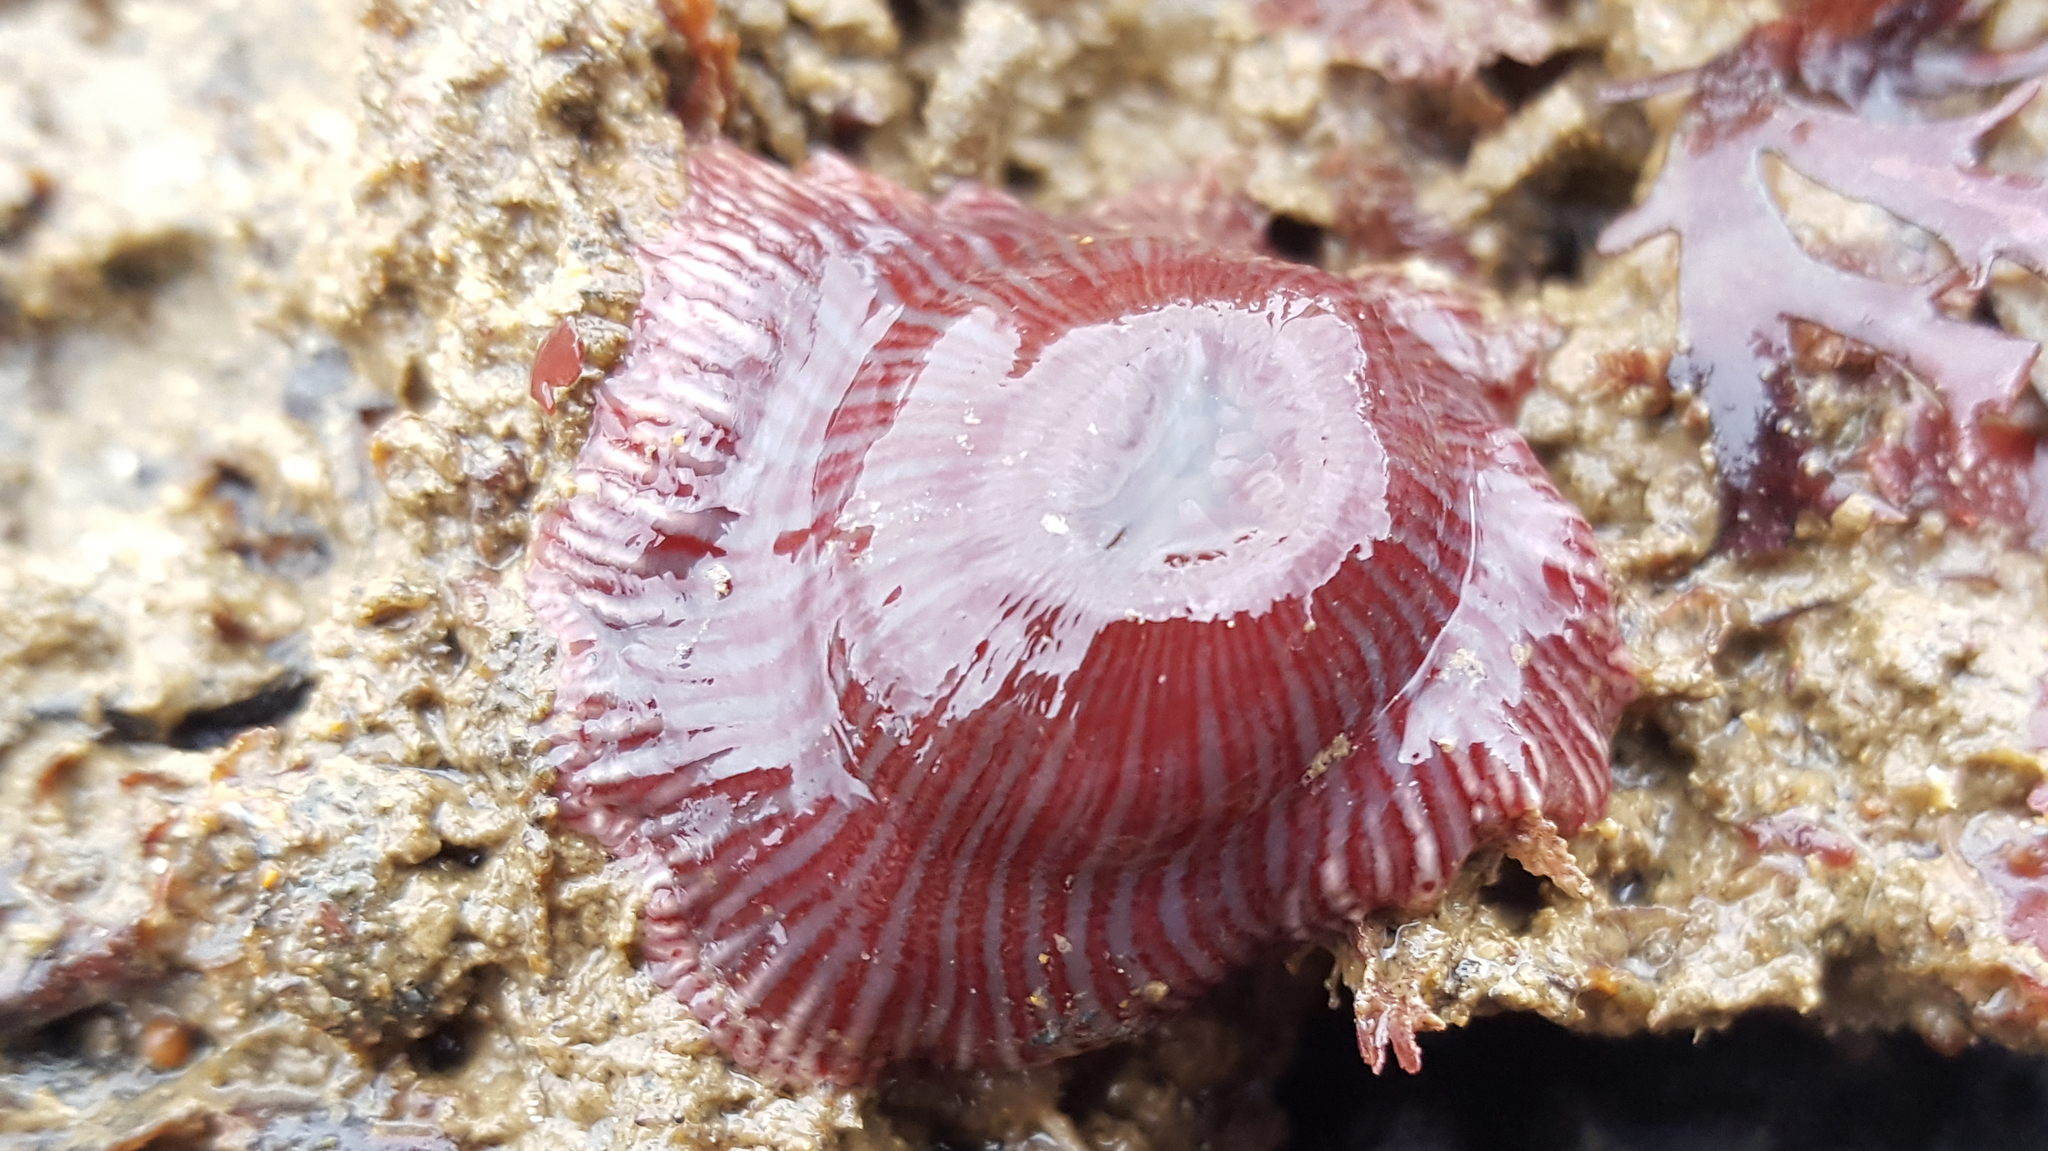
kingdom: Animalia
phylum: Cnidaria
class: Anthozoa
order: Actiniaria
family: Actiniidae
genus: Epiactis
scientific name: Epiactis prolifera
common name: Brooding anemone
